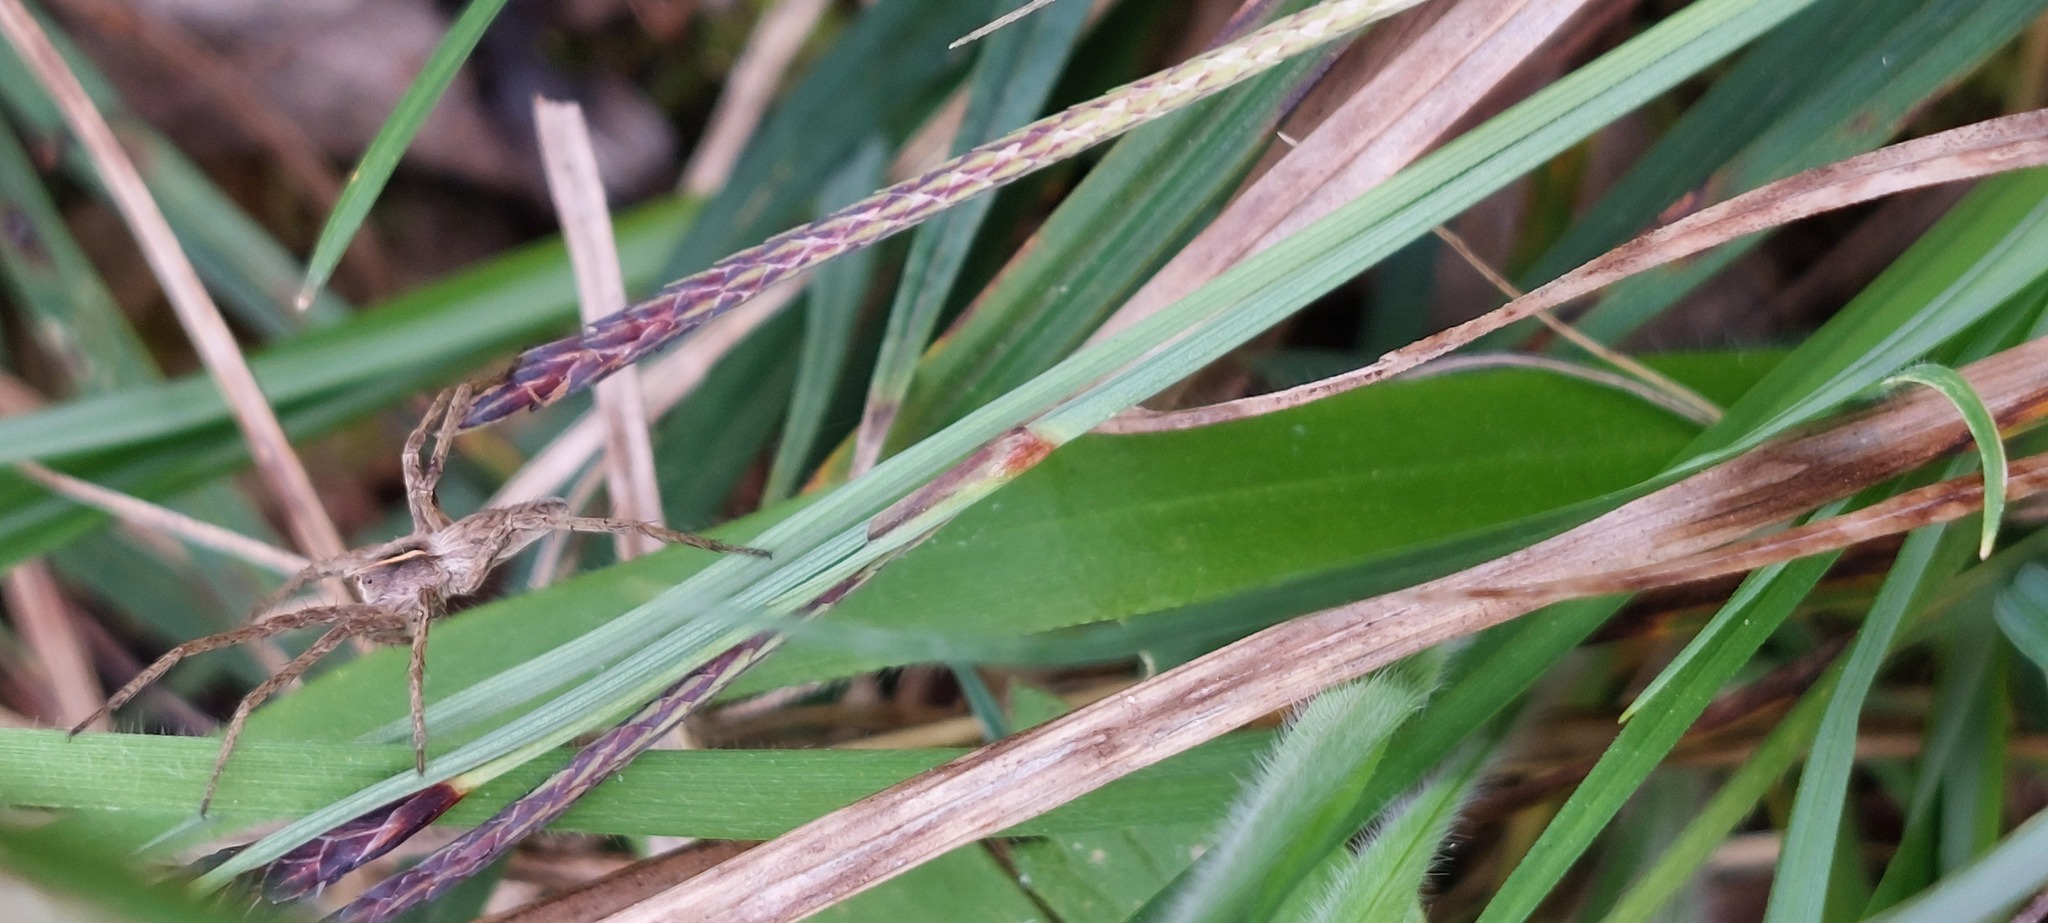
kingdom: Animalia
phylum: Arthropoda
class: Arachnida
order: Araneae
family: Pisauridae
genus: Pisaura
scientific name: Pisaura mirabilis
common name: Tent spider
